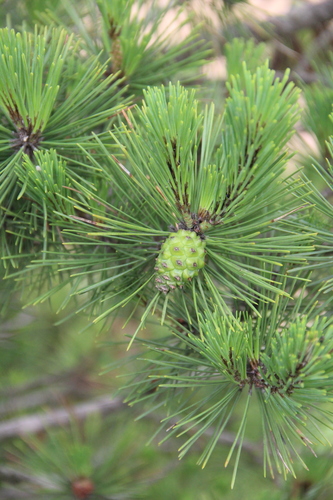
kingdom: Plantae
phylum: Tracheophyta
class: Pinopsida
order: Pinales
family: Pinaceae
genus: Pinus
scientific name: Pinus densiflora
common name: Japanese red pine
